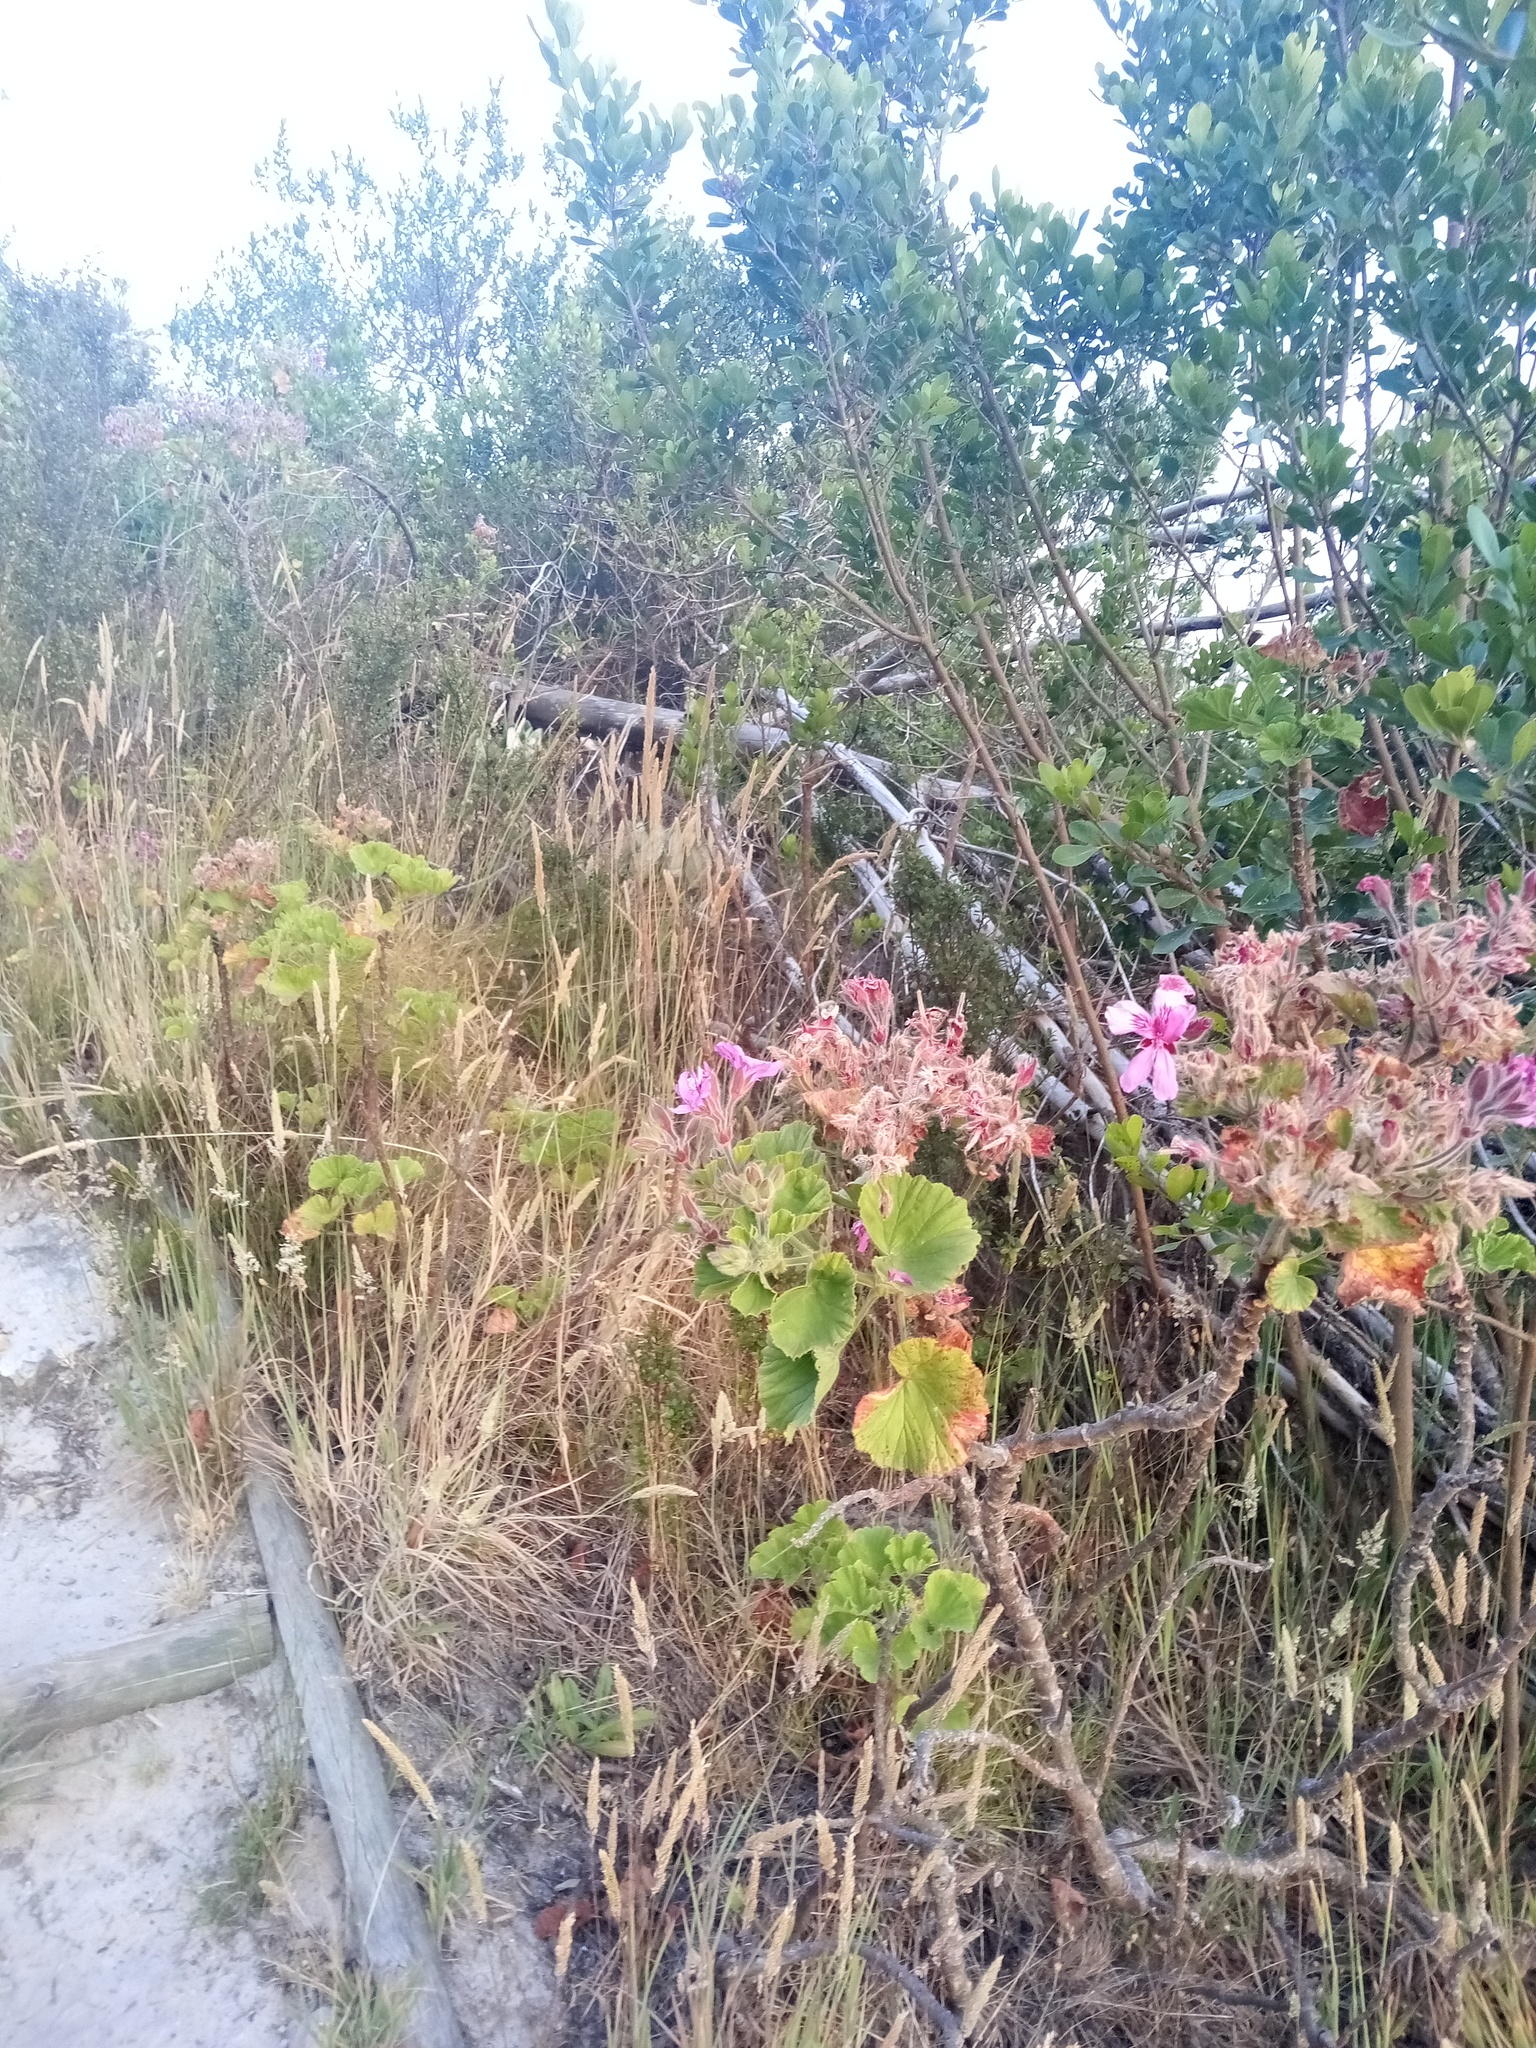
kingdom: Plantae
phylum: Tracheophyta
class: Magnoliopsida
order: Geraniales
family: Geraniaceae
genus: Pelargonium
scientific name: Pelargonium cucullatum
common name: Tree pelargonium
